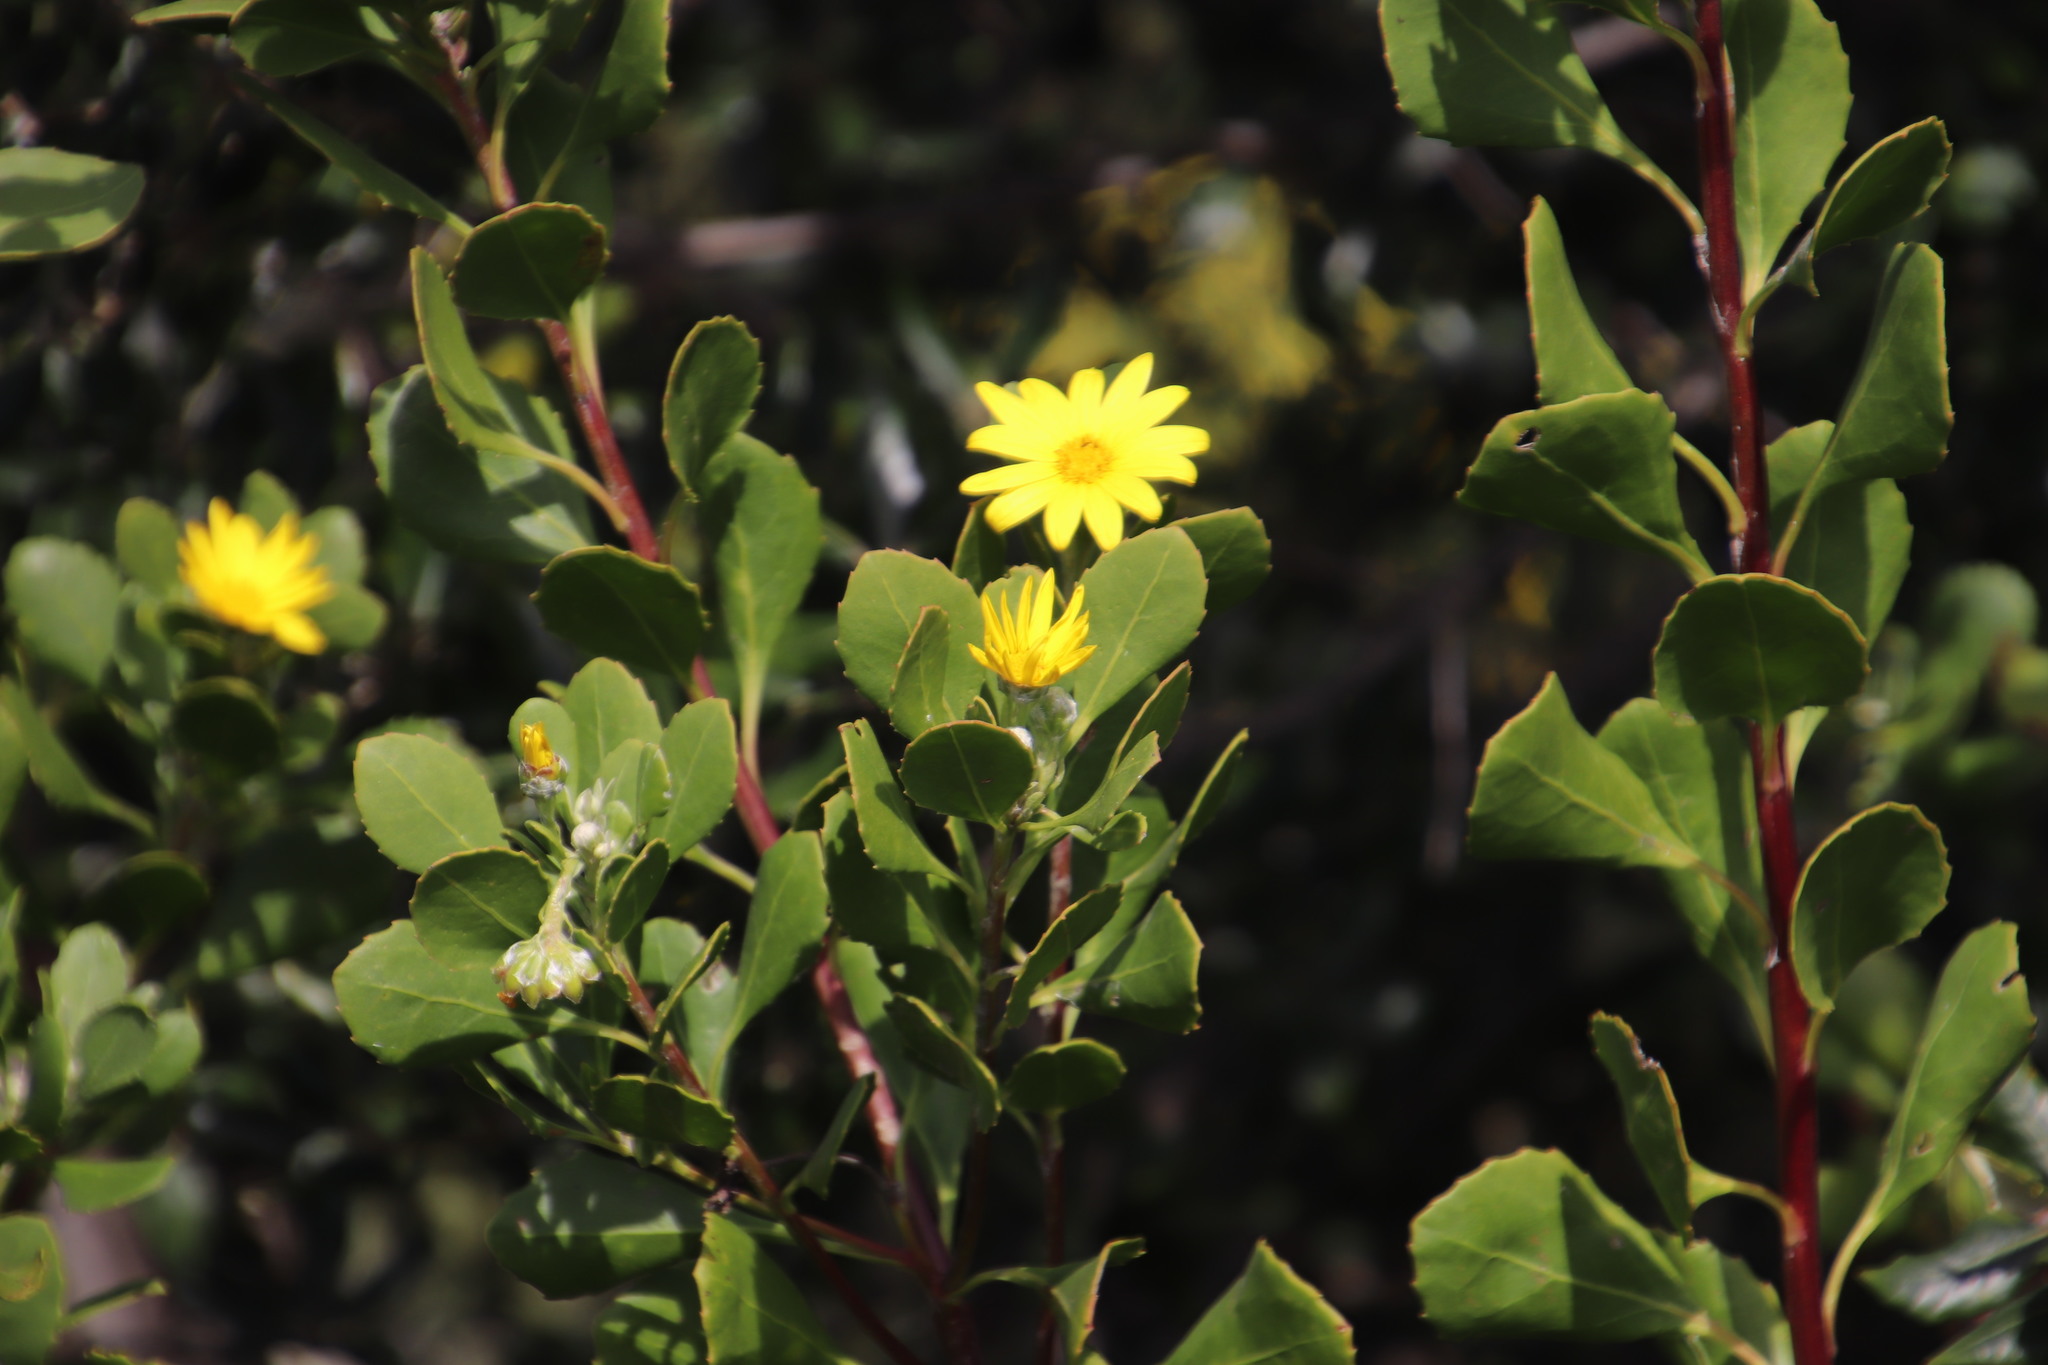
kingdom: Plantae
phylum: Tracheophyta
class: Magnoliopsida
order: Asterales
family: Asteraceae
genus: Osteospermum
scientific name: Osteospermum moniliferum
